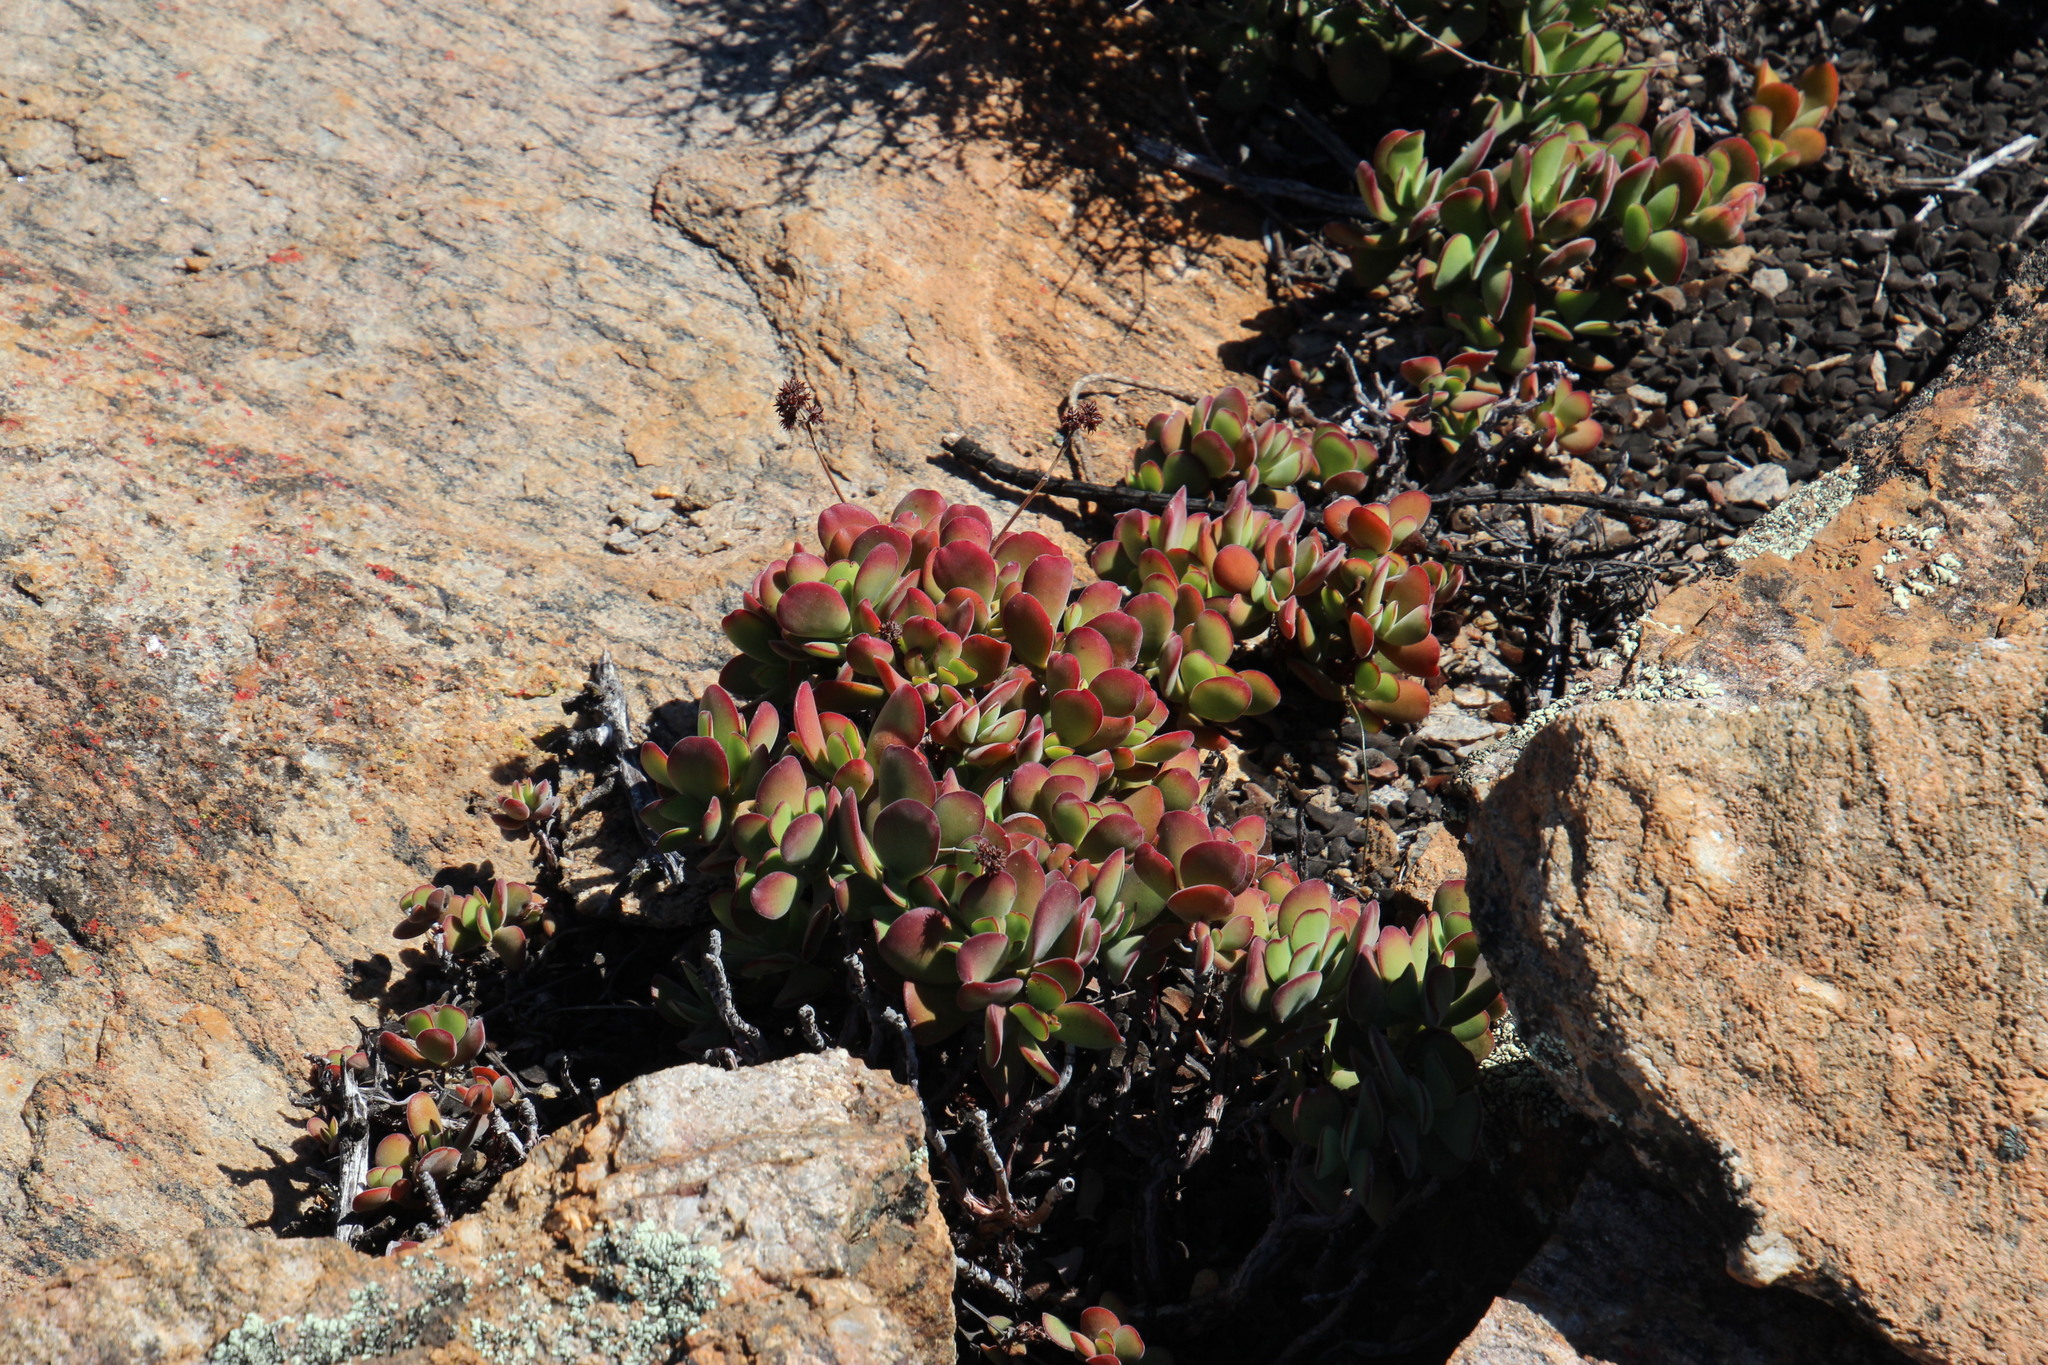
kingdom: Plantae
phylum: Tracheophyta
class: Magnoliopsida
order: Saxifragales
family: Crassulaceae
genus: Crassula
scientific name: Crassula atropurpurea
